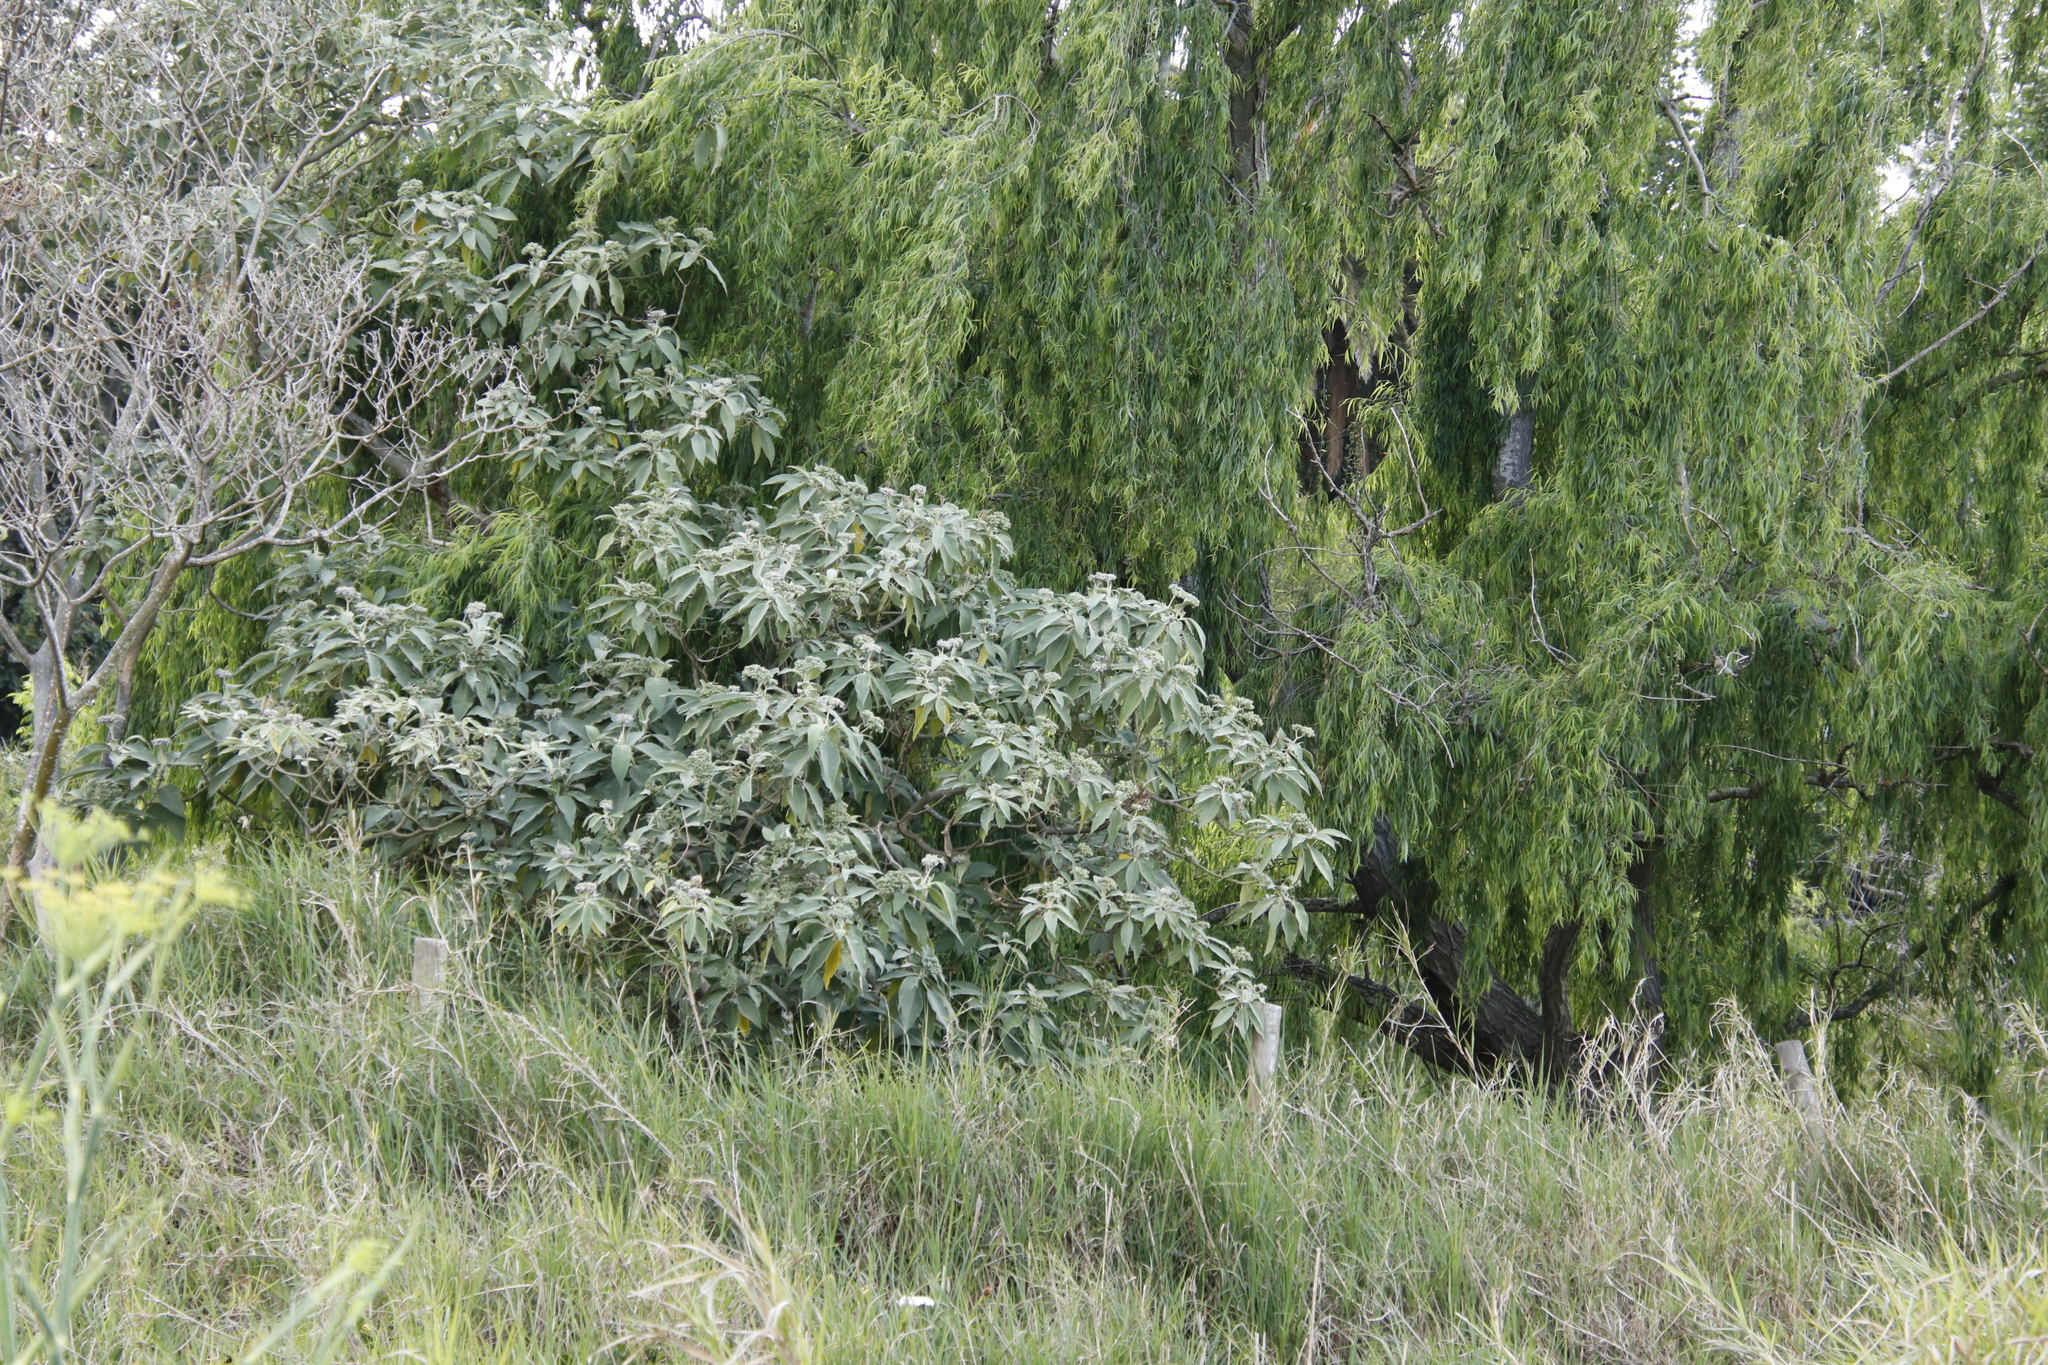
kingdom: Plantae
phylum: Tracheophyta
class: Magnoliopsida
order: Solanales
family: Solanaceae
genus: Solanum
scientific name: Solanum mauritianum
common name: Earleaf nightshade
